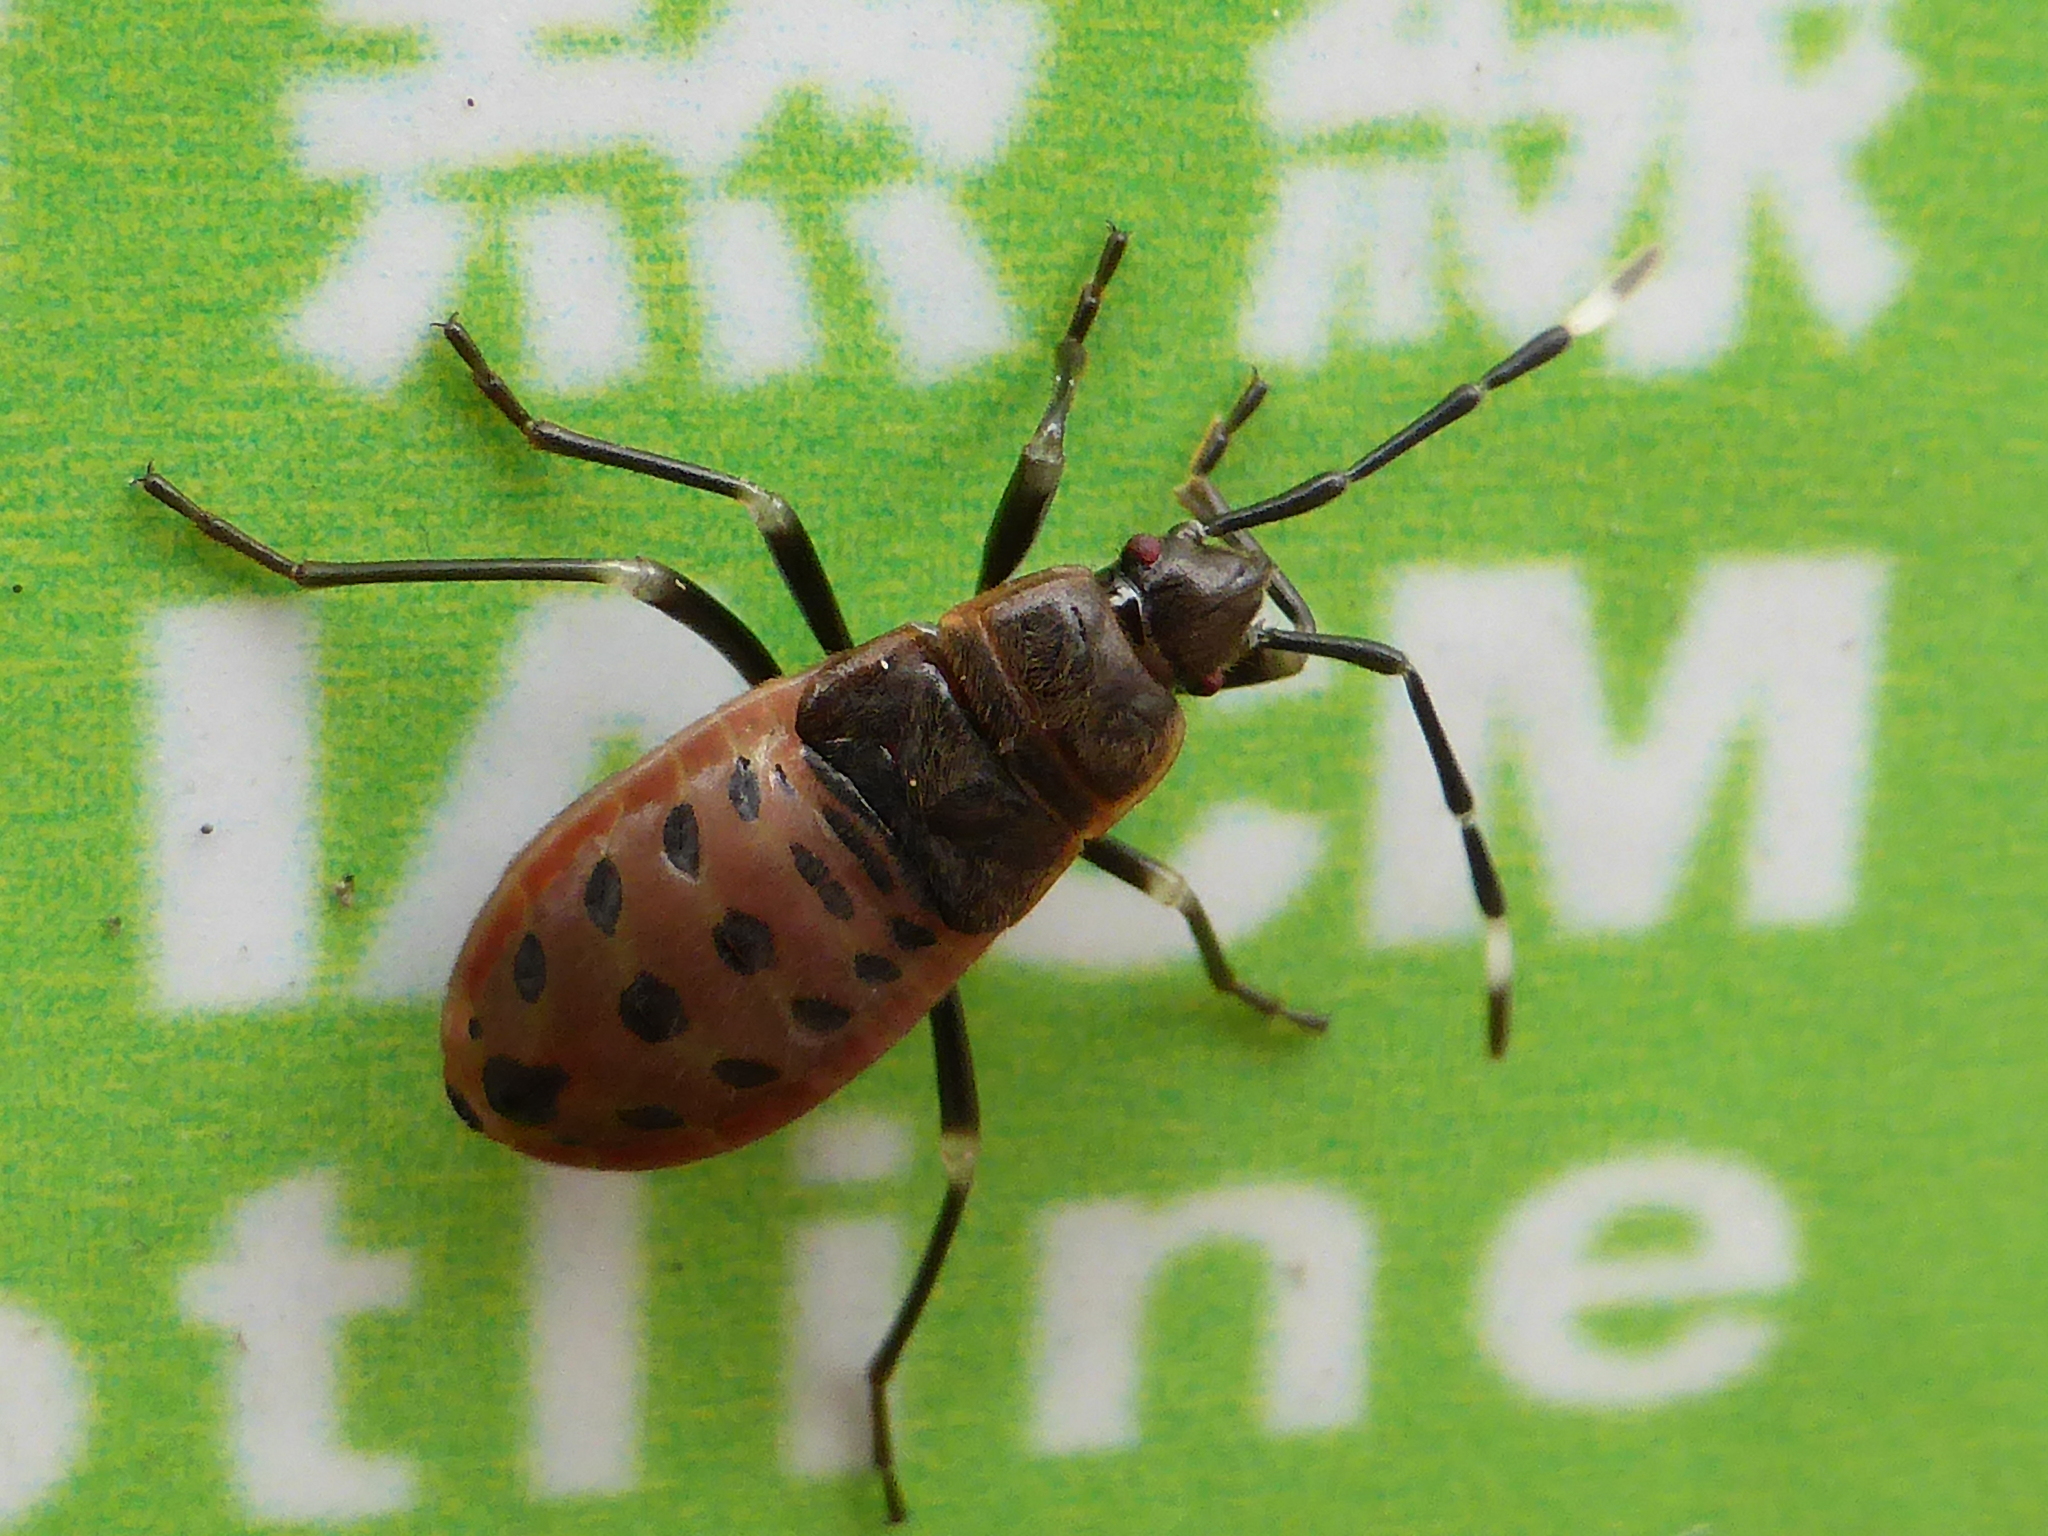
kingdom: Animalia
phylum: Arthropoda
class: Insecta
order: Hemiptera
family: Largidae
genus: Physopelta
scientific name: Physopelta gutta
